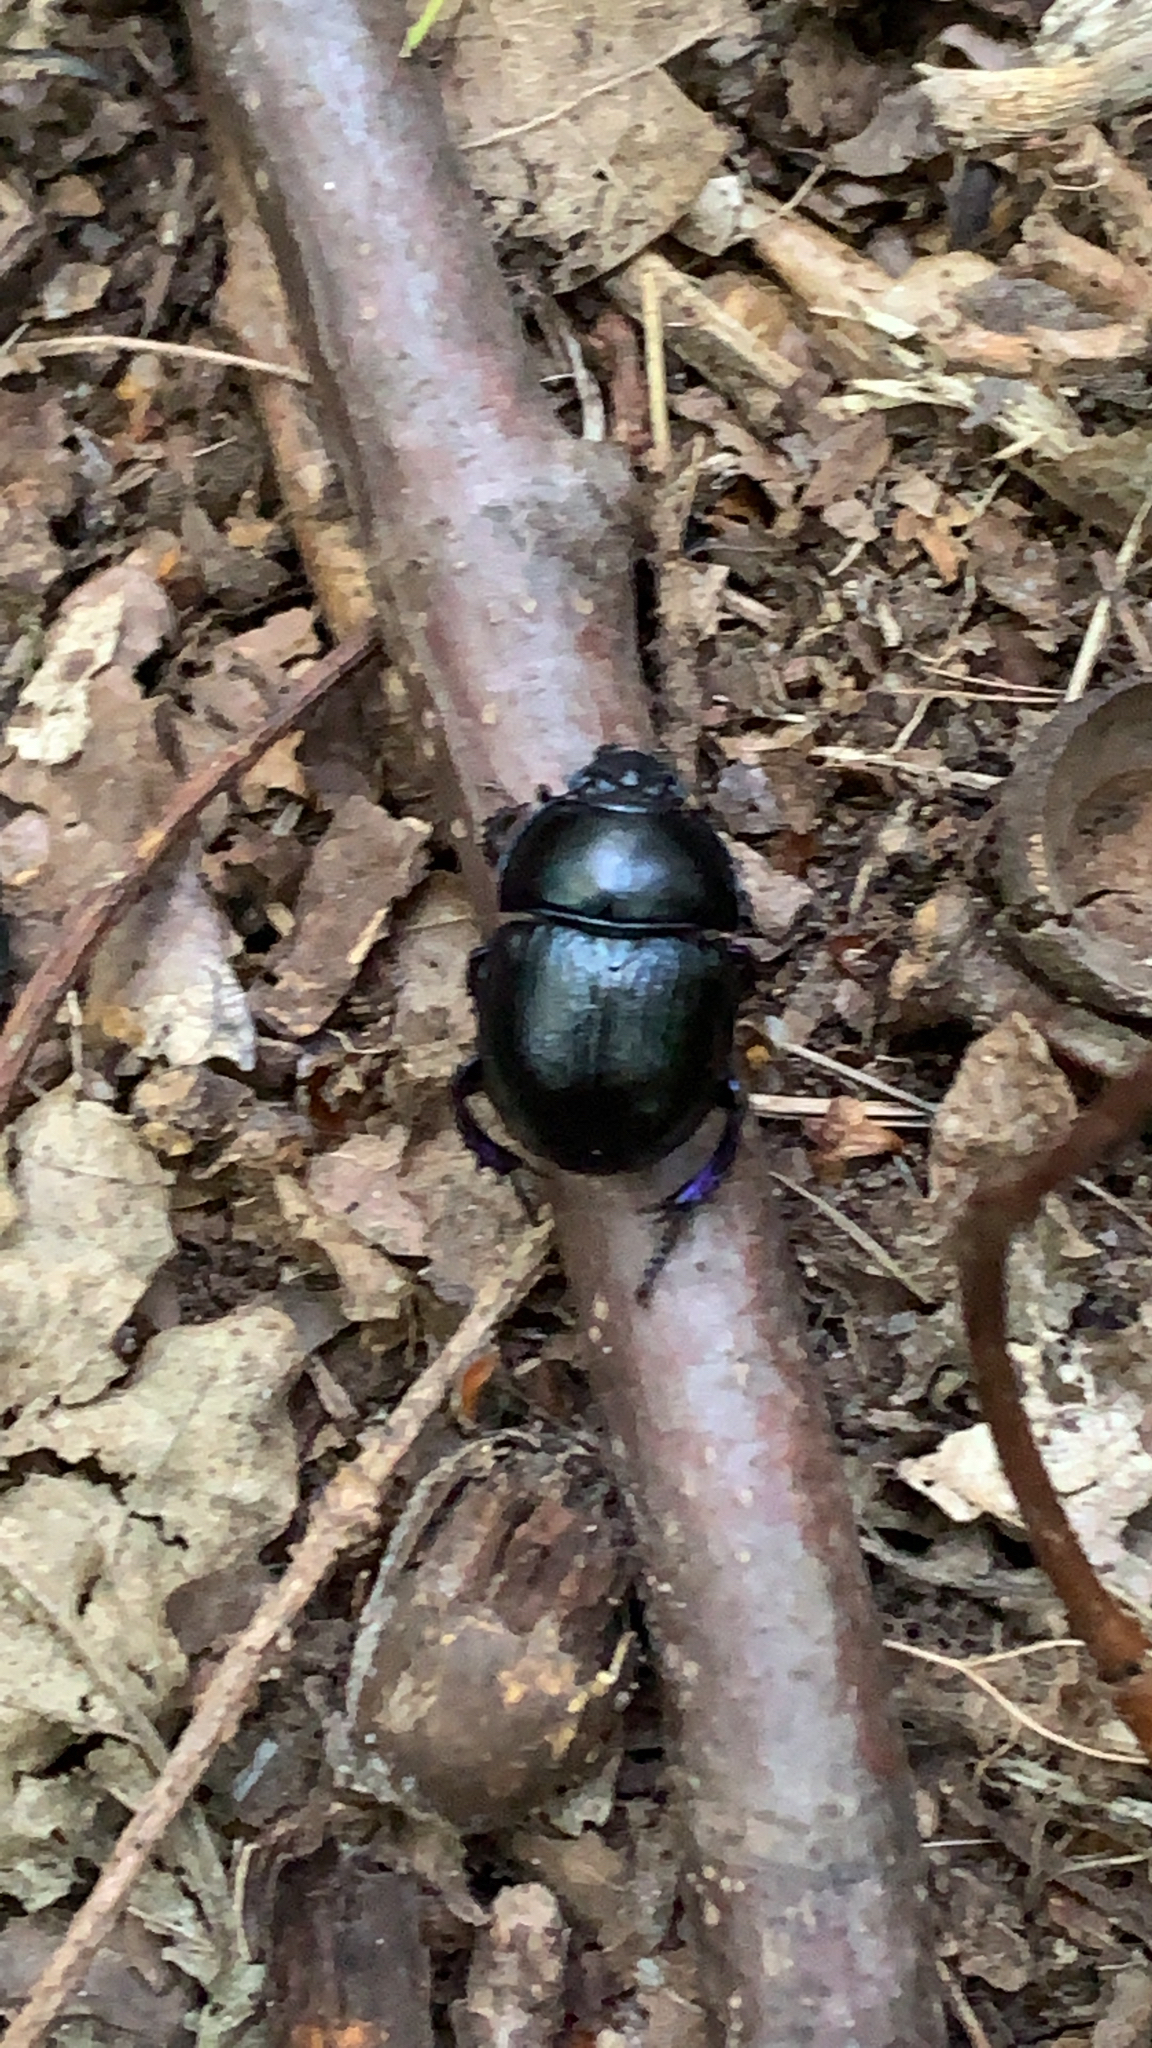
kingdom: Animalia
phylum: Arthropoda
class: Insecta
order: Coleoptera
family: Geotrupidae
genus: Anoplotrupes
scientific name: Anoplotrupes stercorosus
